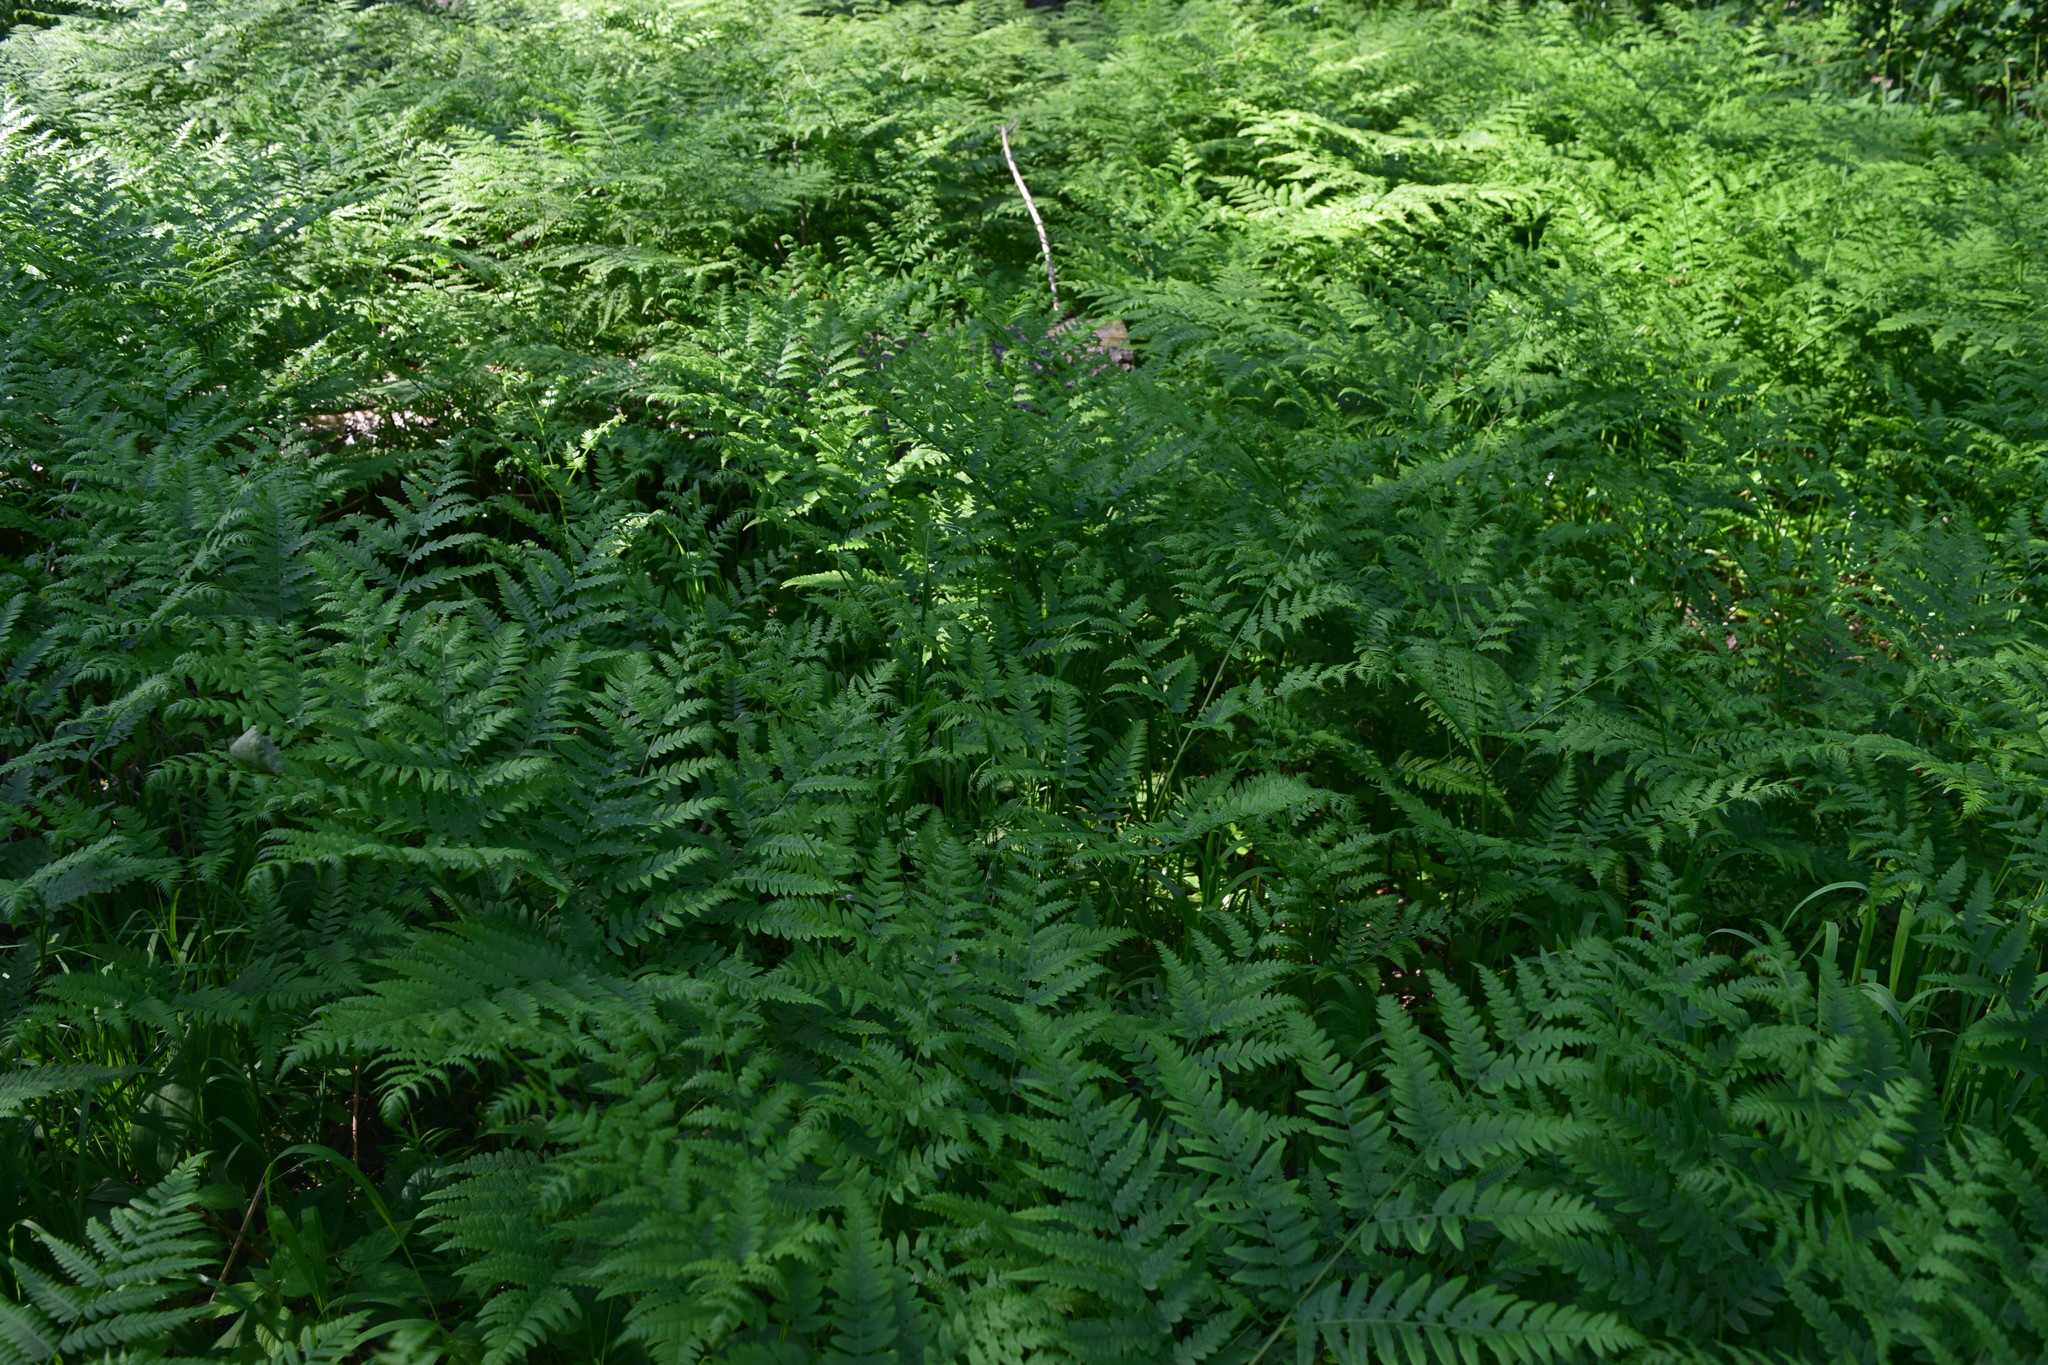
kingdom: Plantae
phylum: Tracheophyta
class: Polypodiopsida
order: Polypodiales
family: Dennstaedtiaceae
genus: Pteridium
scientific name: Pteridium aquilinum
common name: Bracken
